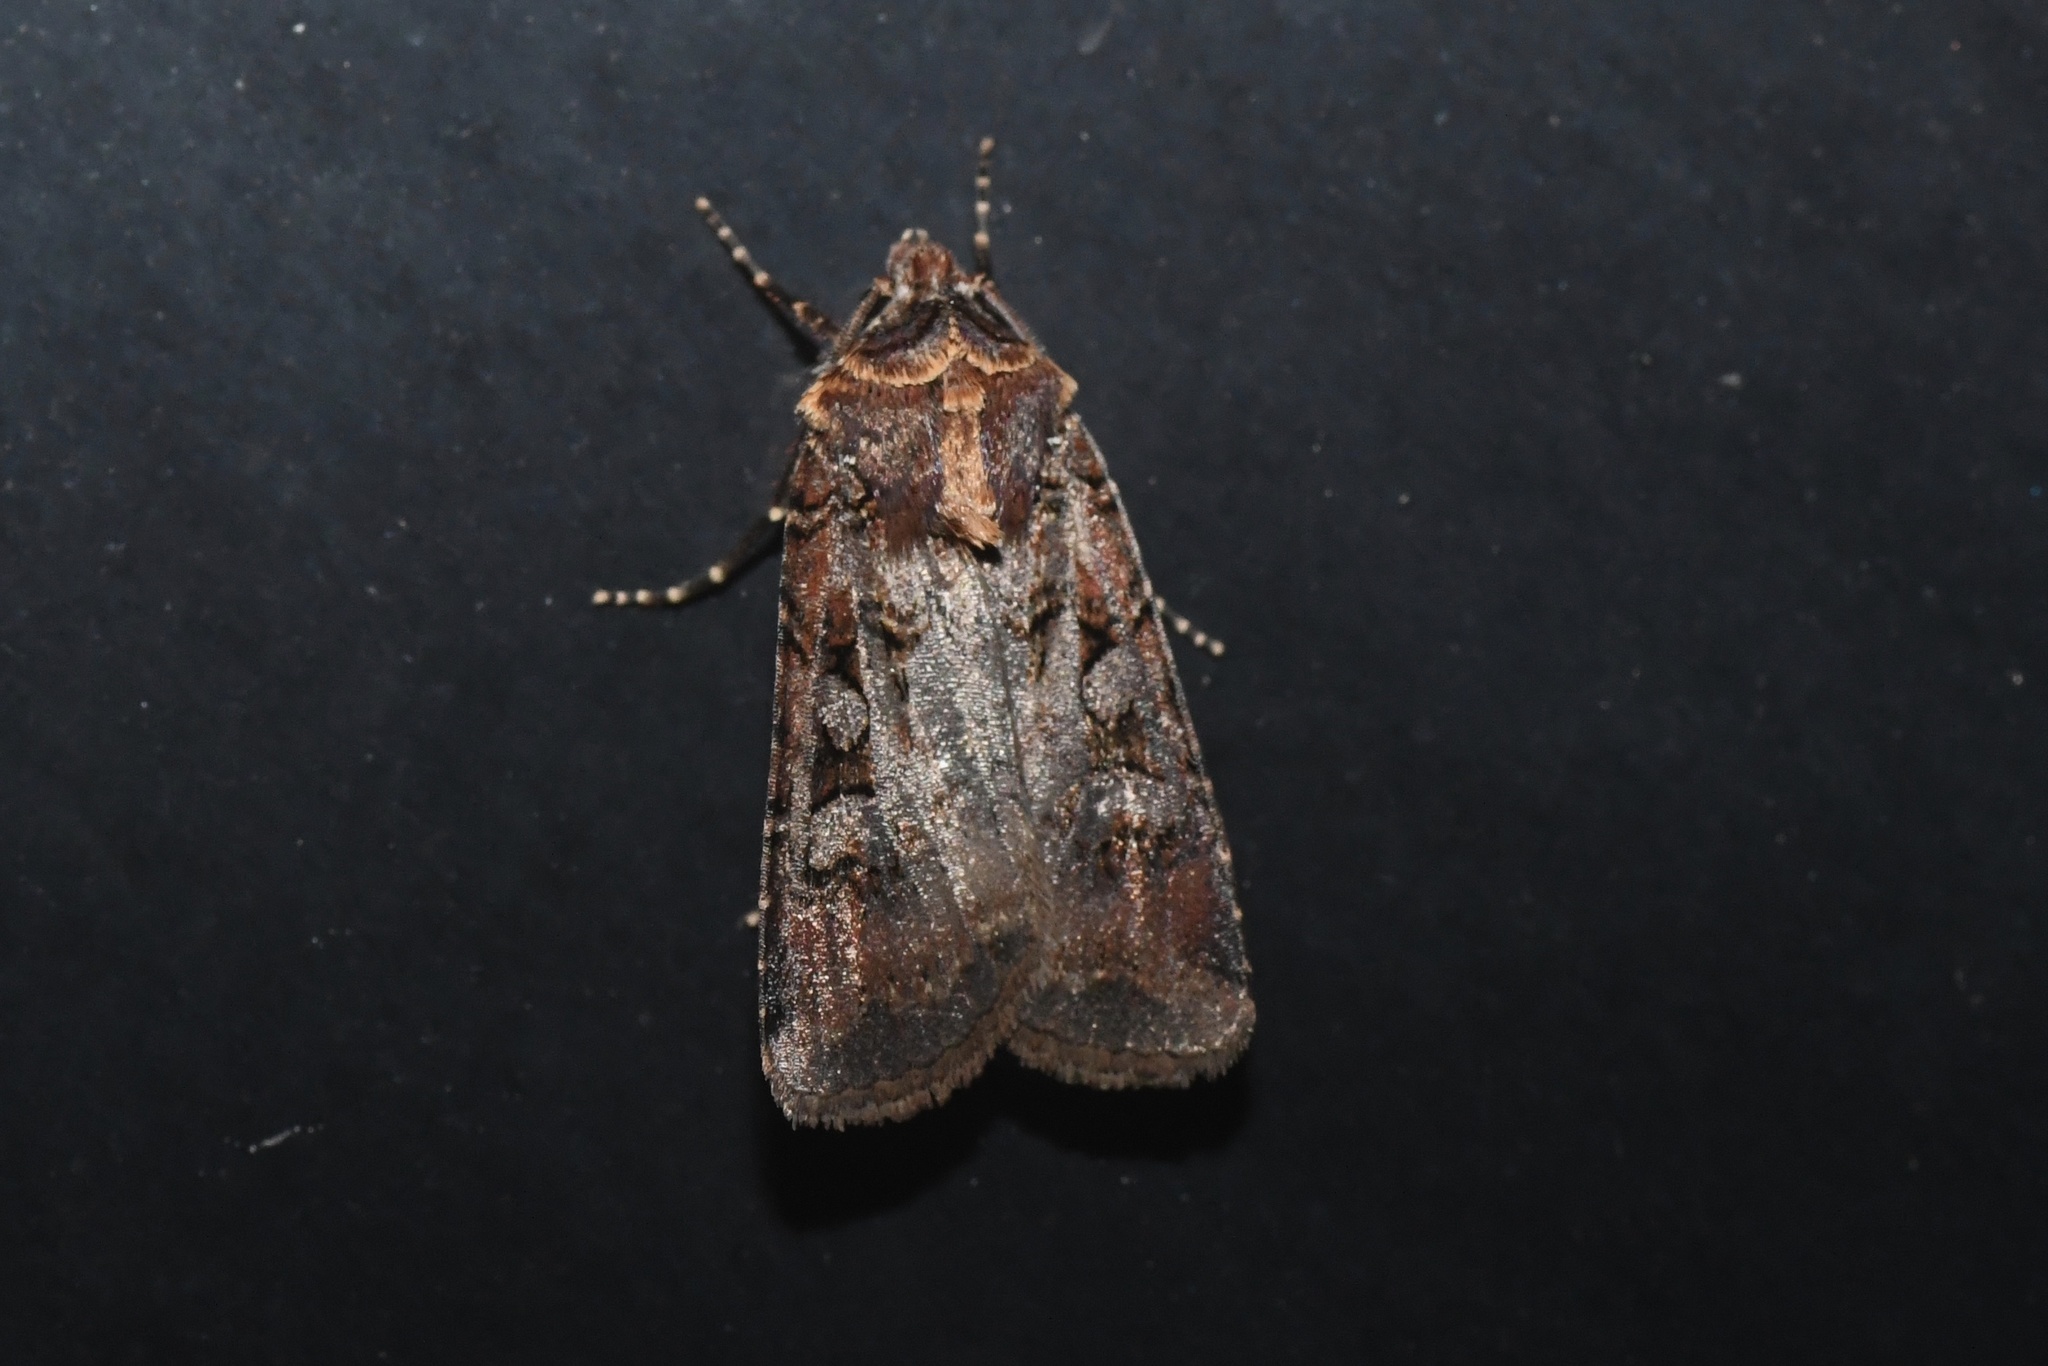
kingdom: Animalia
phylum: Arthropoda
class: Insecta
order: Lepidoptera
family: Noctuidae
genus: Euxoa
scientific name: Euxoa tessellata
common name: Striped cutworm
